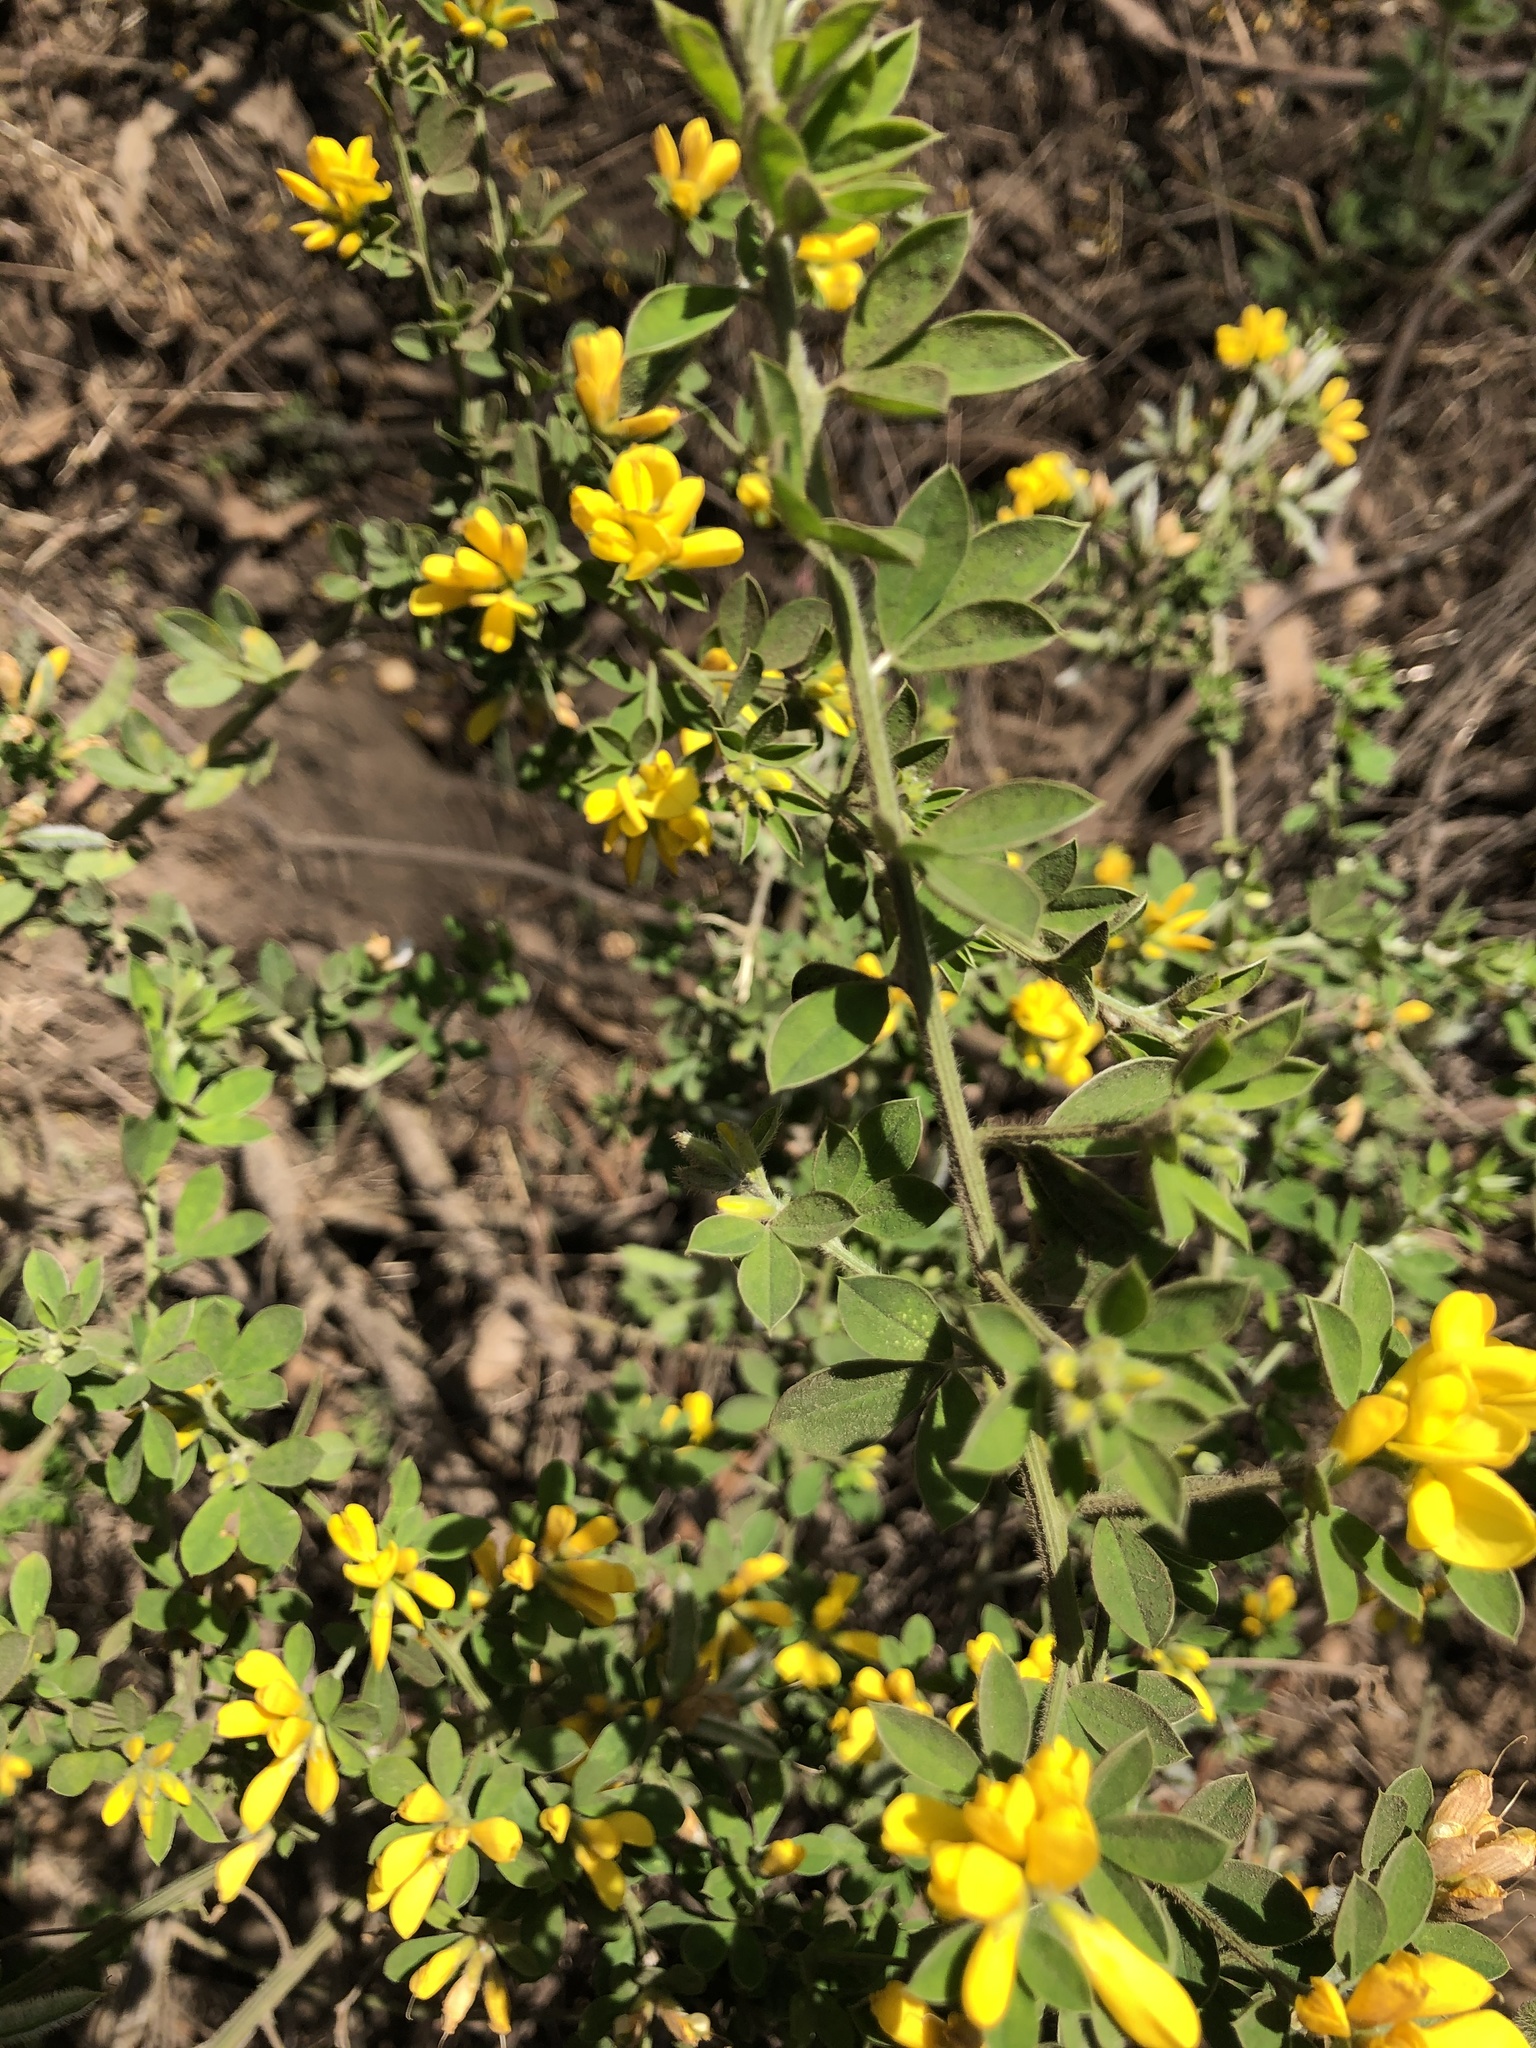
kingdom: Plantae
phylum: Tracheophyta
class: Magnoliopsida
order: Fabales
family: Fabaceae
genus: Genista
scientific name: Genista monspessulana
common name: Montpellier broom
